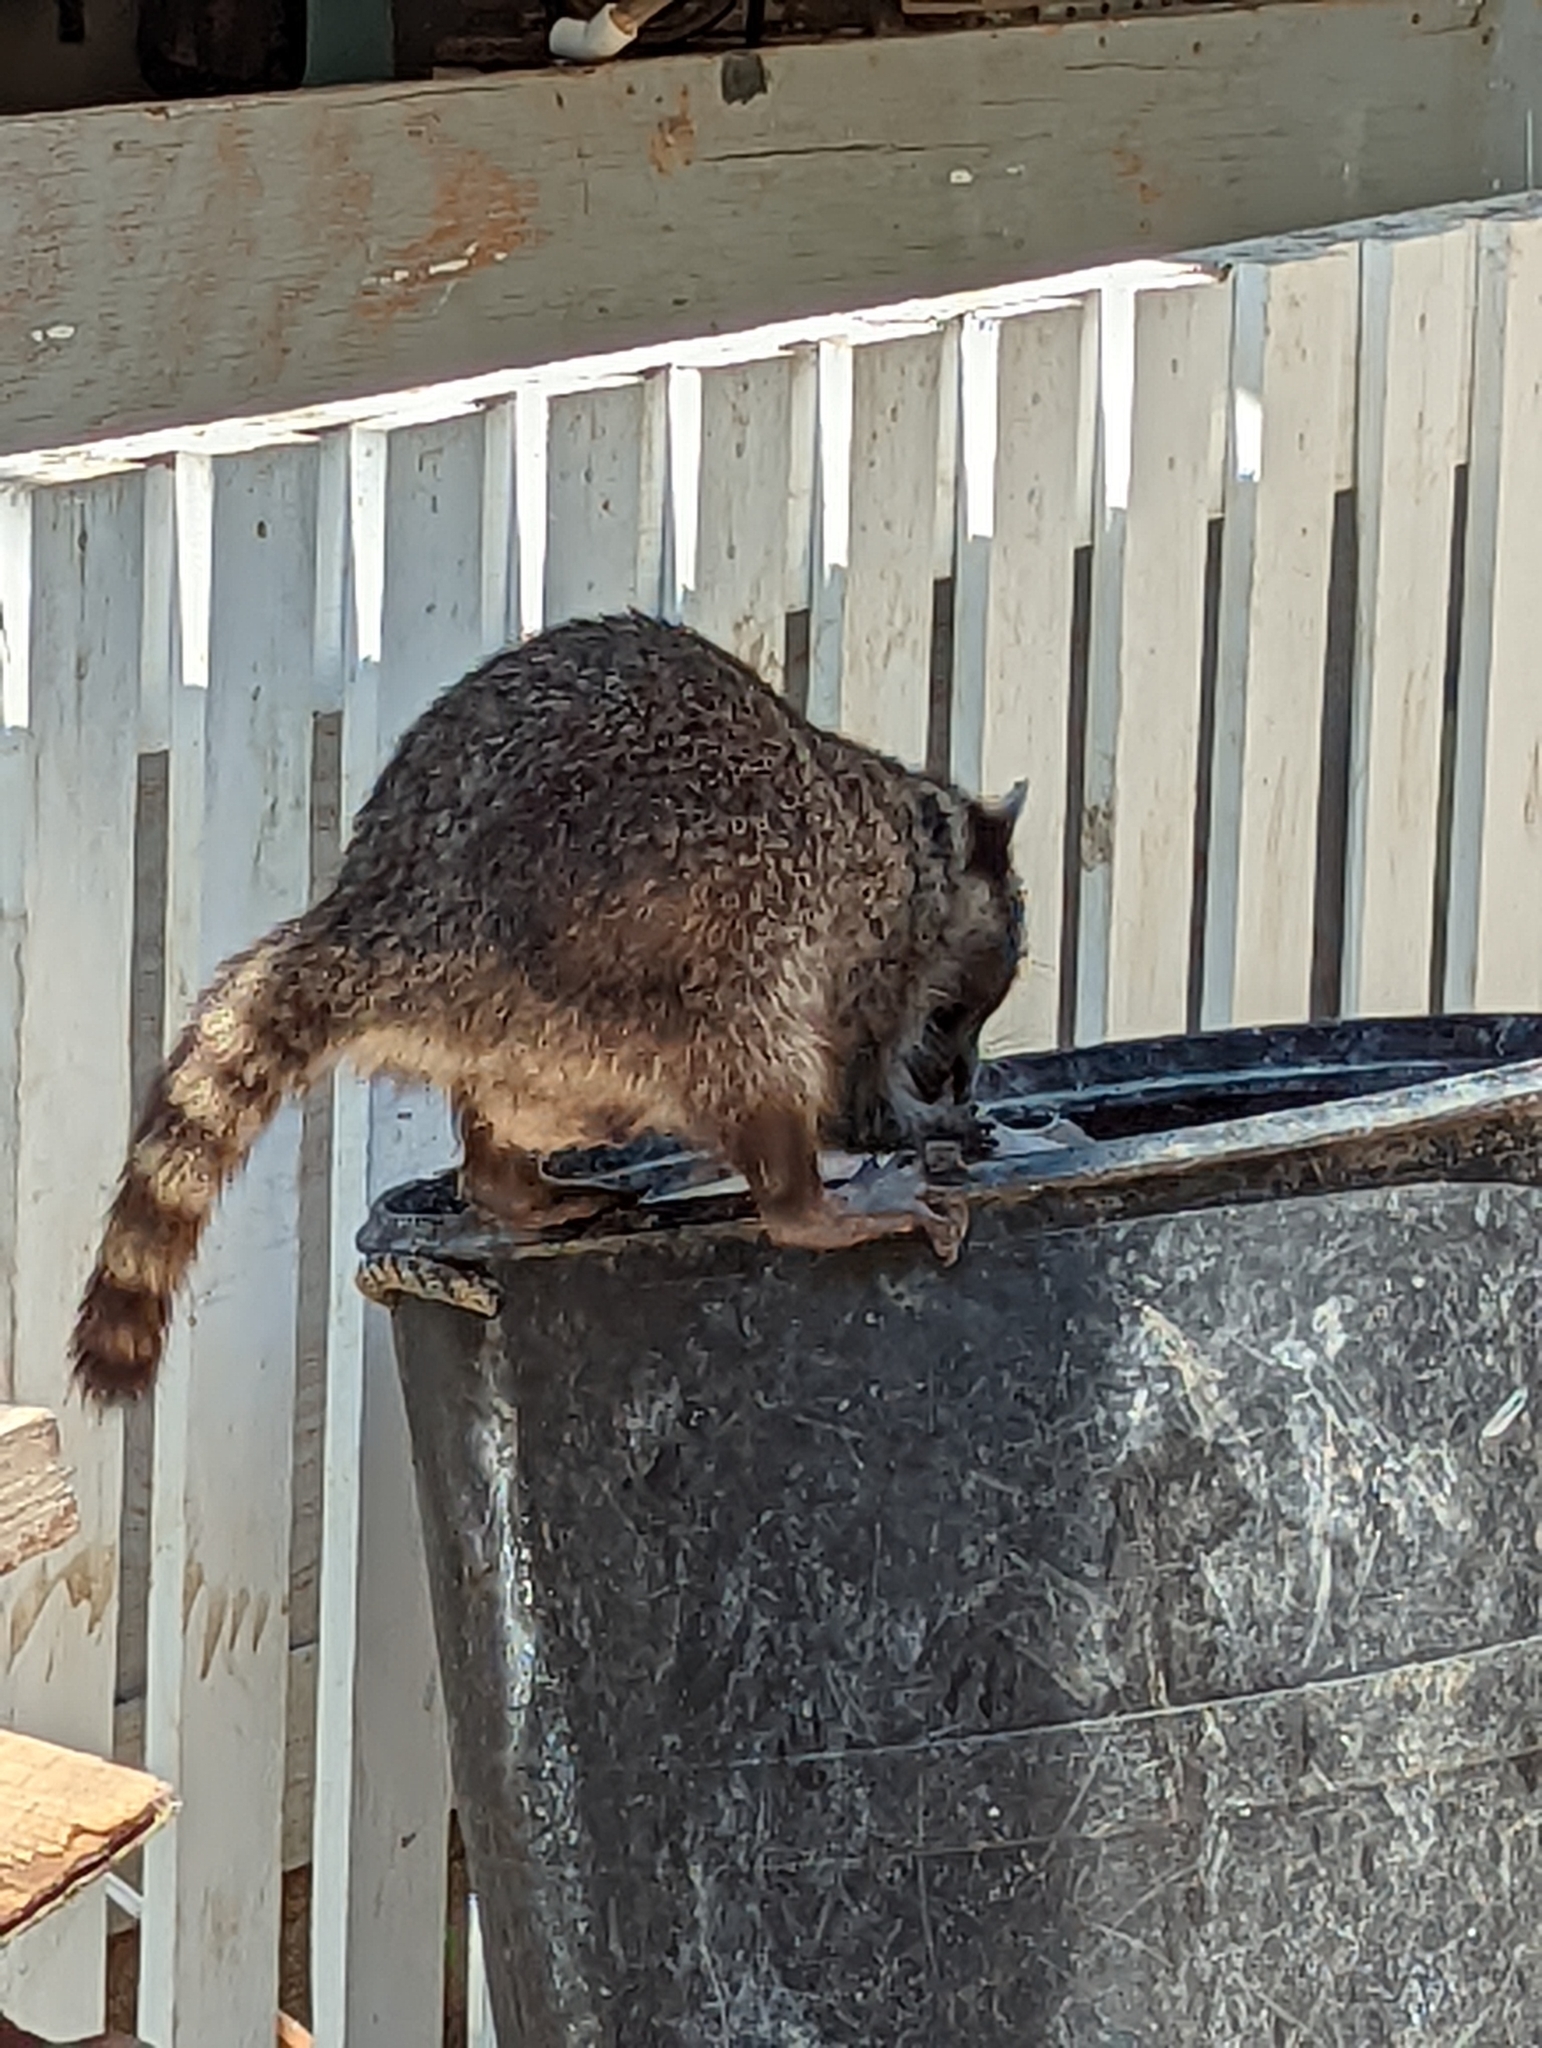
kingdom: Animalia
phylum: Chordata
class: Mammalia
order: Carnivora
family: Procyonidae
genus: Procyon
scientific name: Procyon lotor
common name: Raccoon
